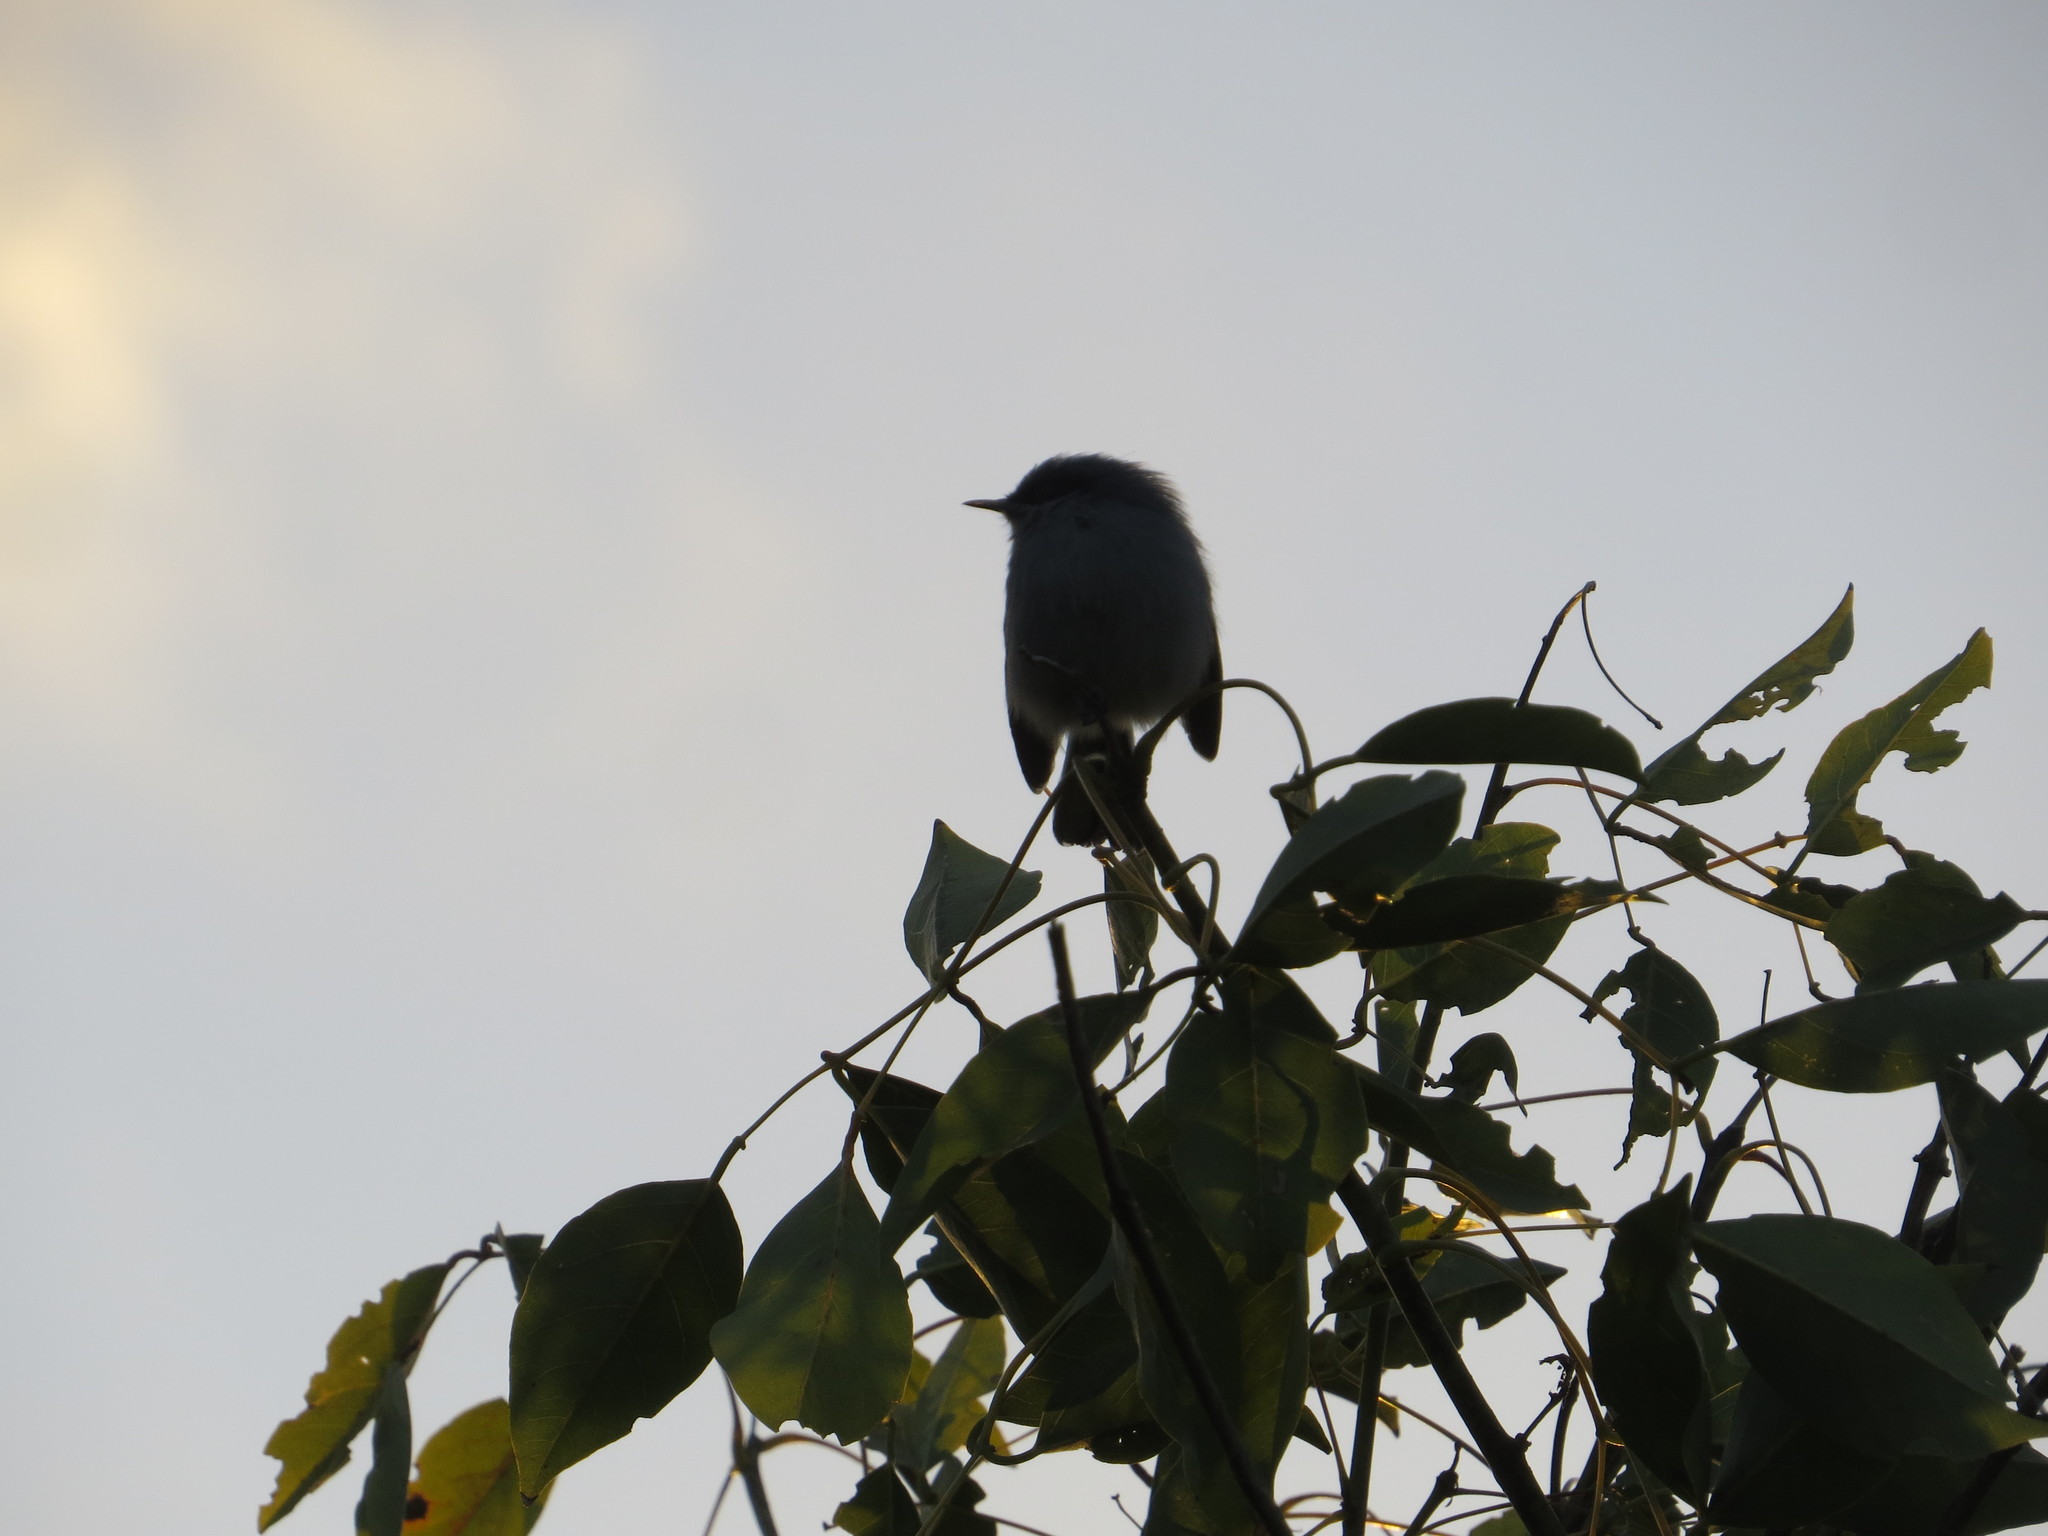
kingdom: Animalia
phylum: Chordata
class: Aves
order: Passeriformes
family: Polioptilidae
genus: Polioptila
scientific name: Polioptila dumicola
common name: Masked gnatcatcher
